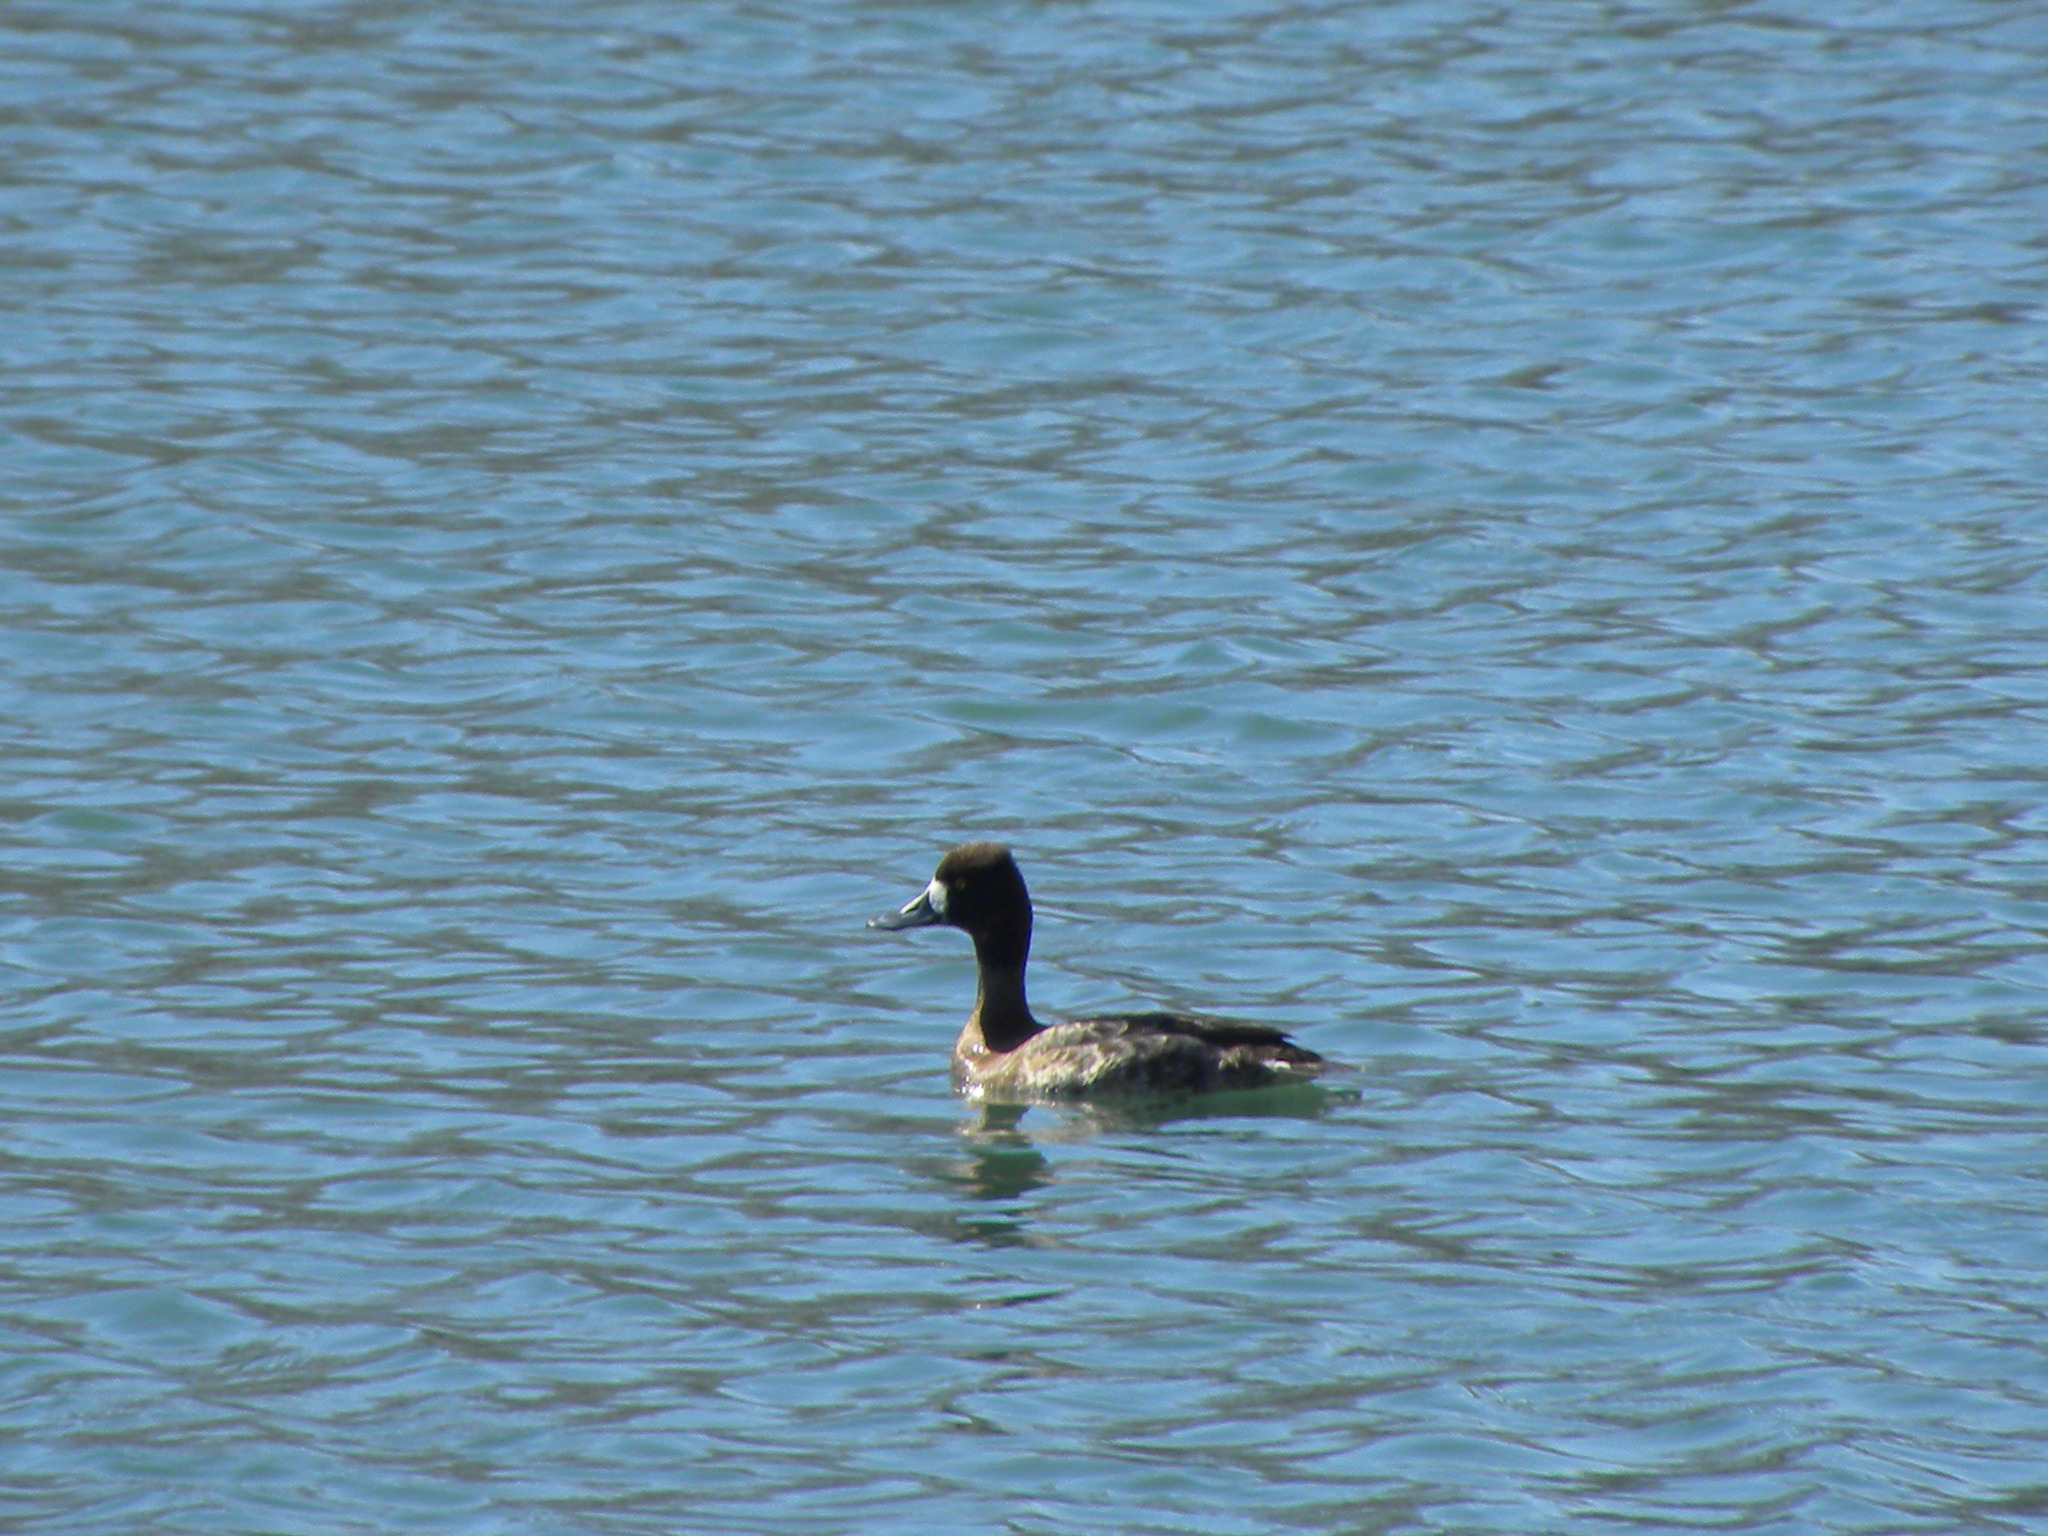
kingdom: Animalia
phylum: Chordata
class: Aves
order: Anseriformes
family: Anatidae
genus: Aythya
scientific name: Aythya affinis
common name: Lesser scaup
